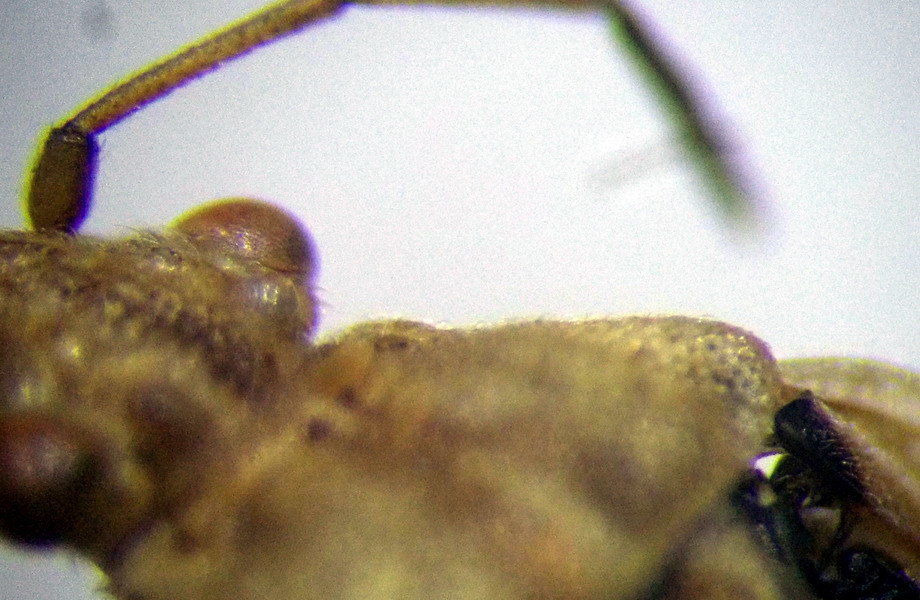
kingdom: Animalia
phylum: Arthropoda
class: Insecta
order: Hemiptera
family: Rhopalidae
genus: Stictopleurus
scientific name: Stictopleurus subtomentosus
